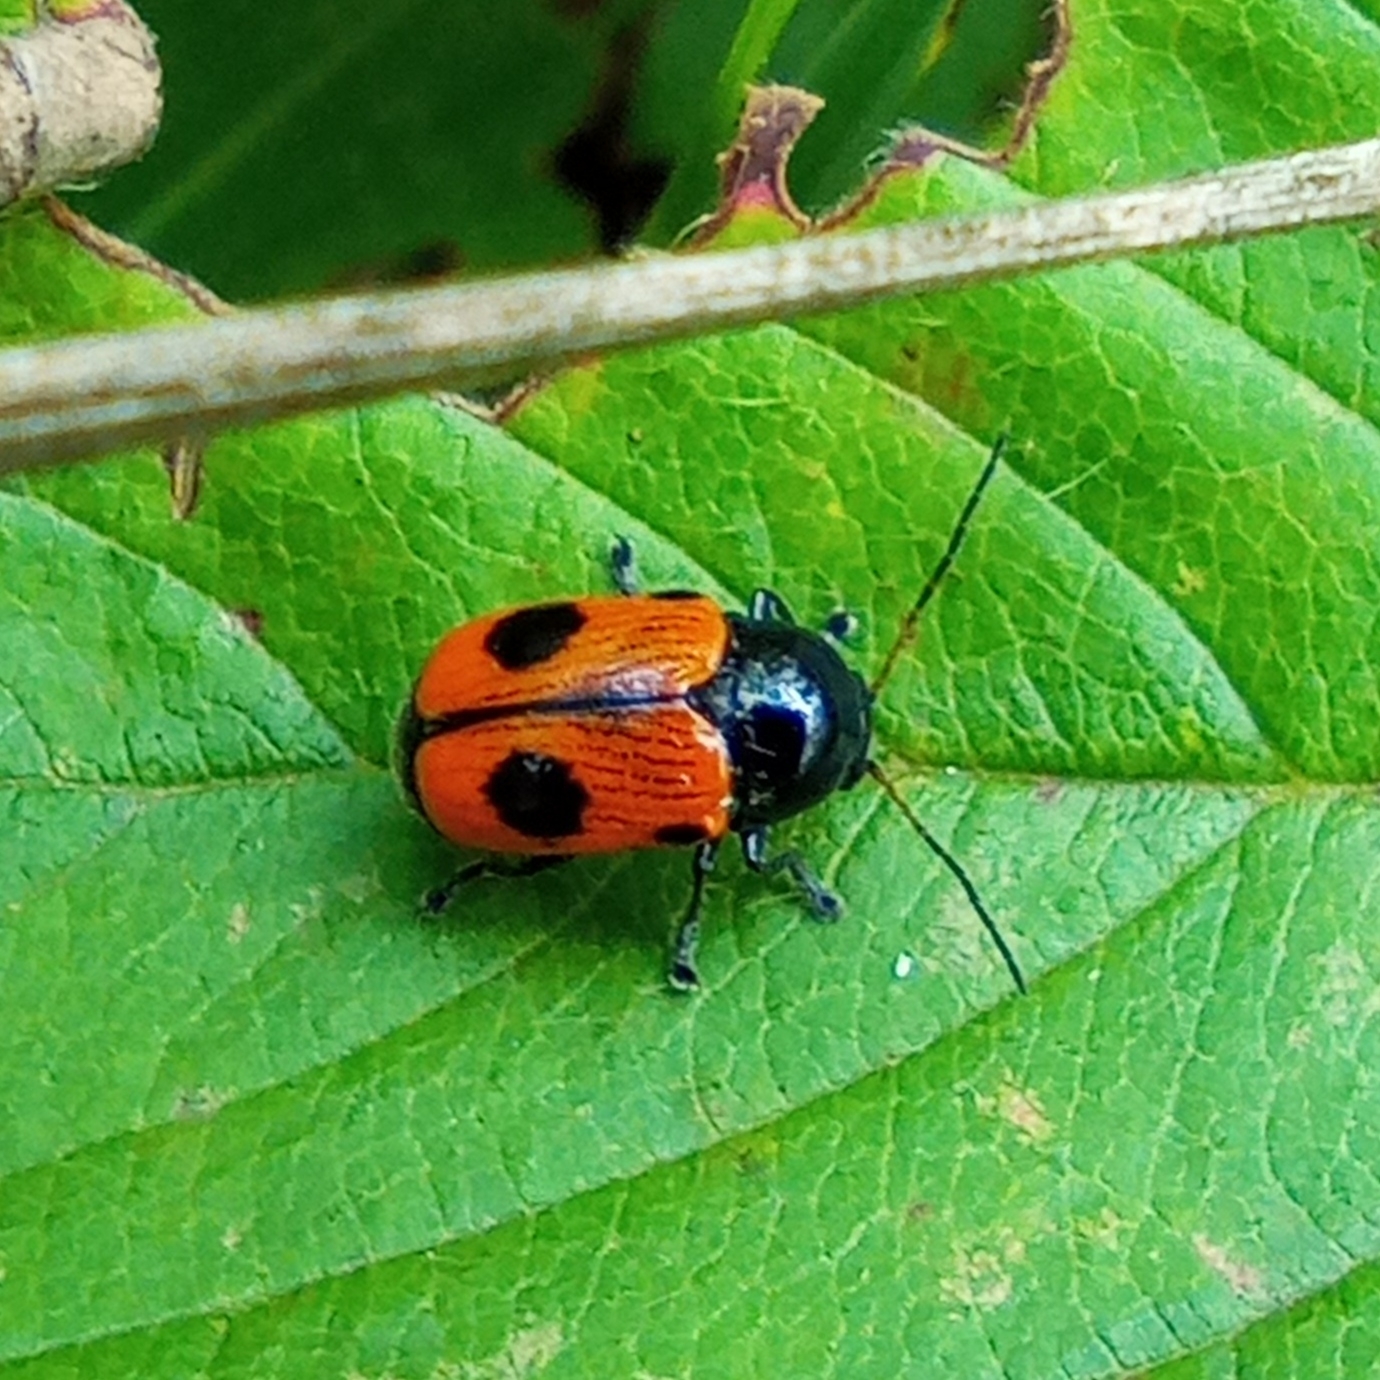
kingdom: Animalia
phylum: Arthropoda
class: Insecta
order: Coleoptera
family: Chrysomelidae
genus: Chiridopsis
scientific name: Chiridopsis bipunctata
